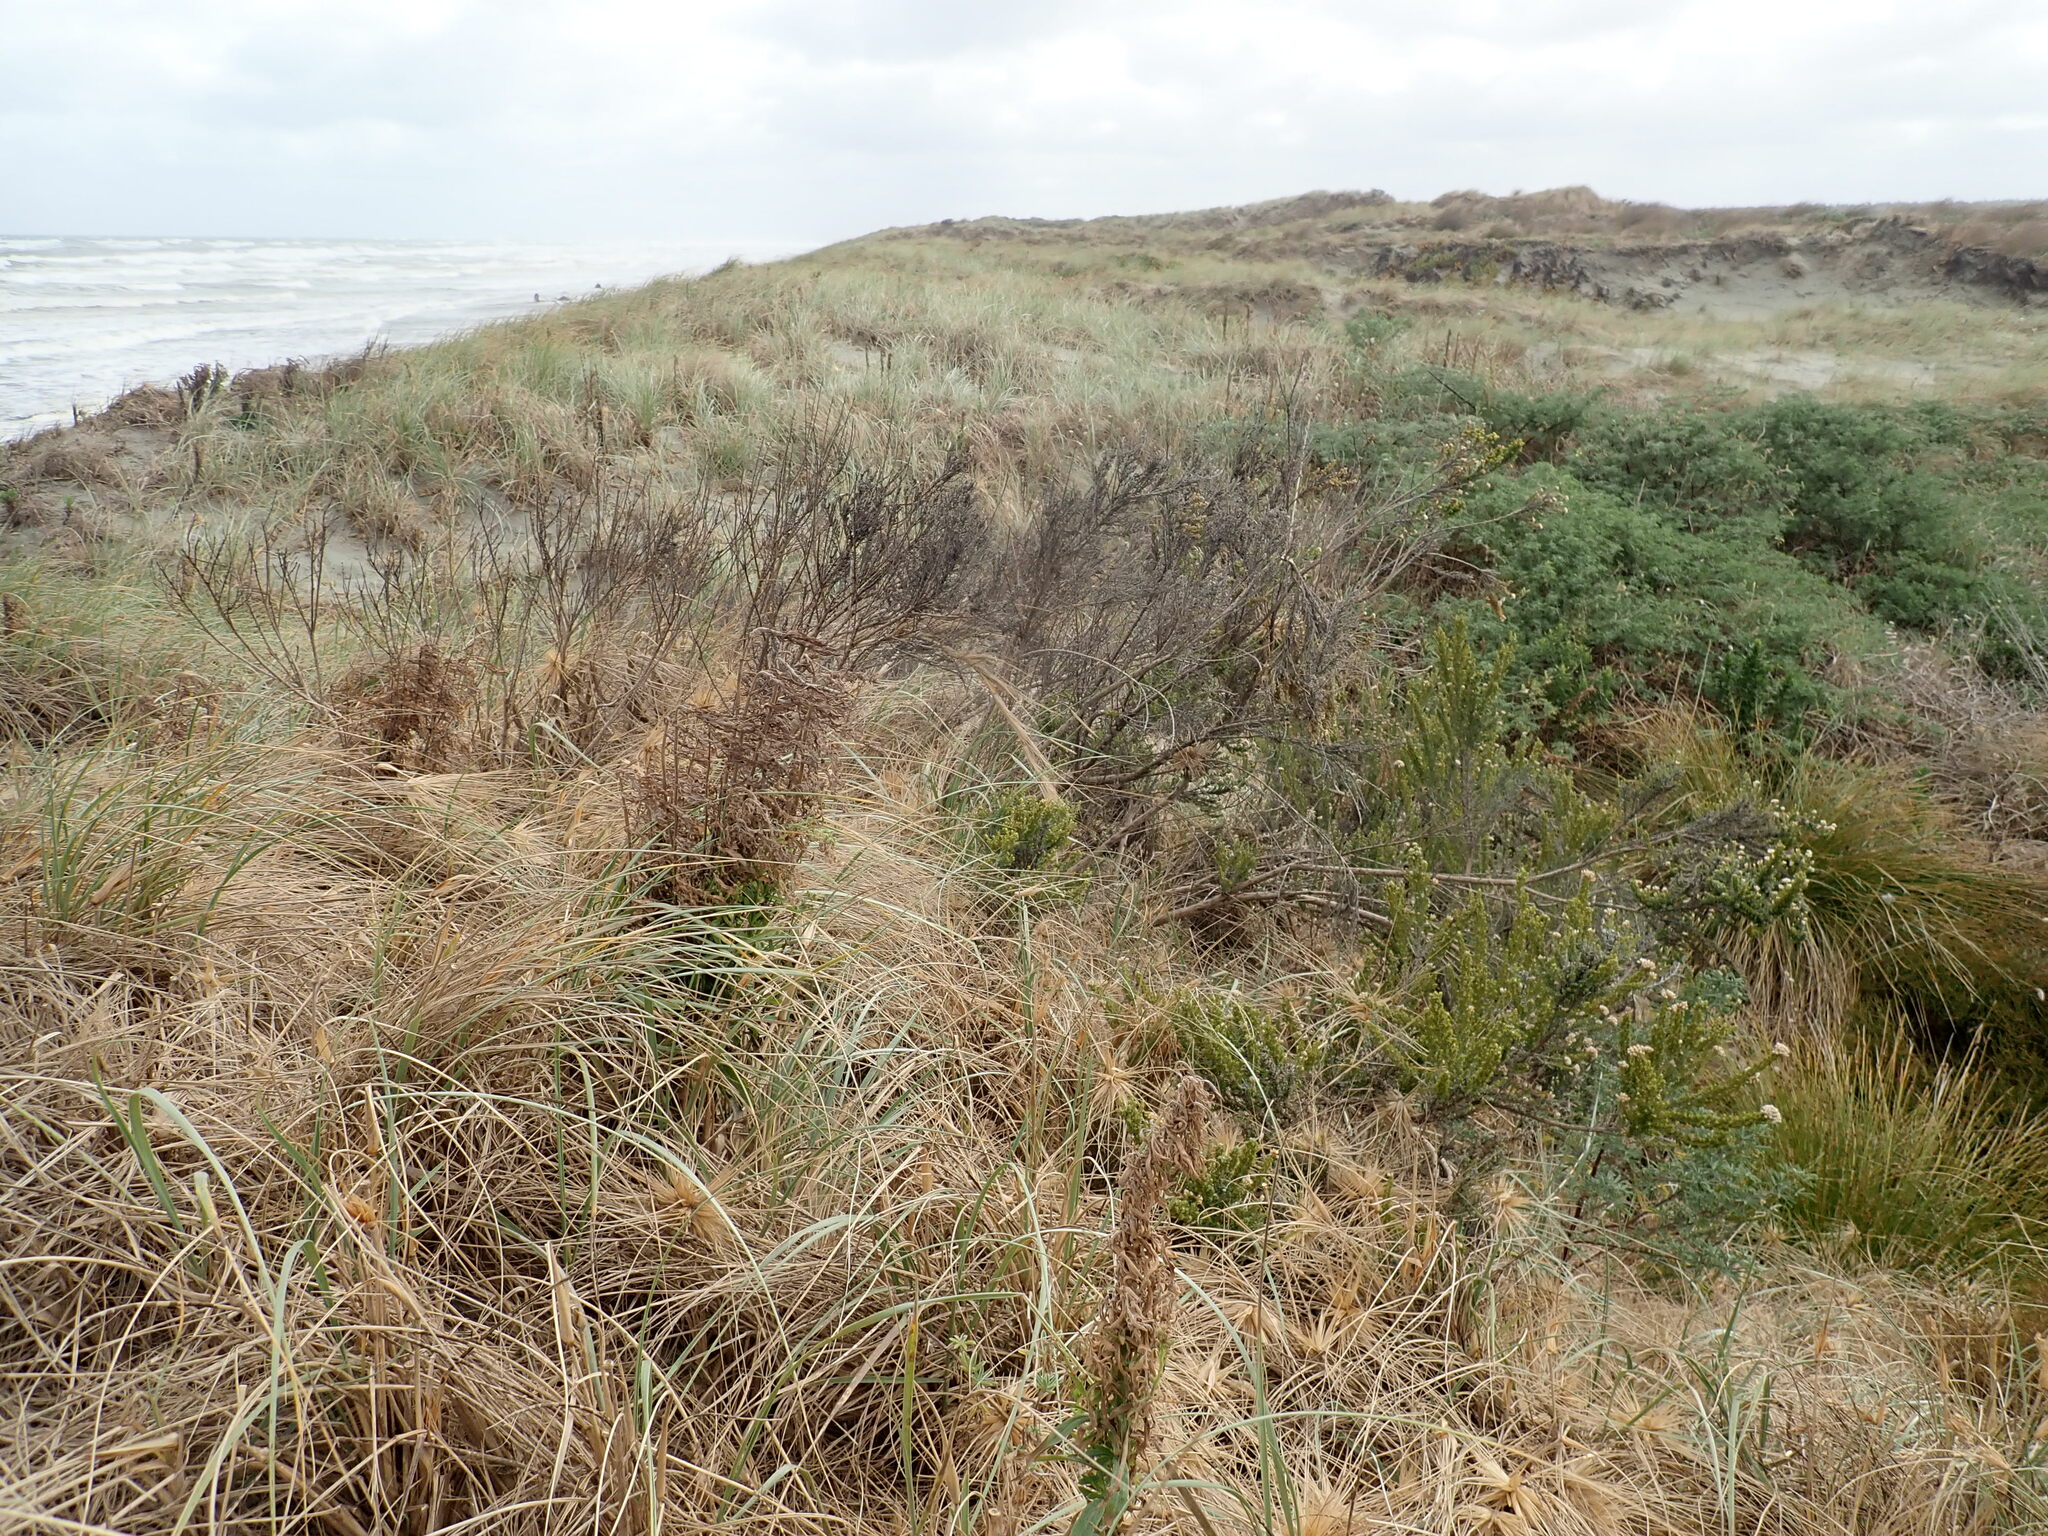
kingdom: Plantae
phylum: Tracheophyta
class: Magnoliopsida
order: Asterales
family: Asteraceae
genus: Ozothamnus
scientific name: Ozothamnus leptophyllus
